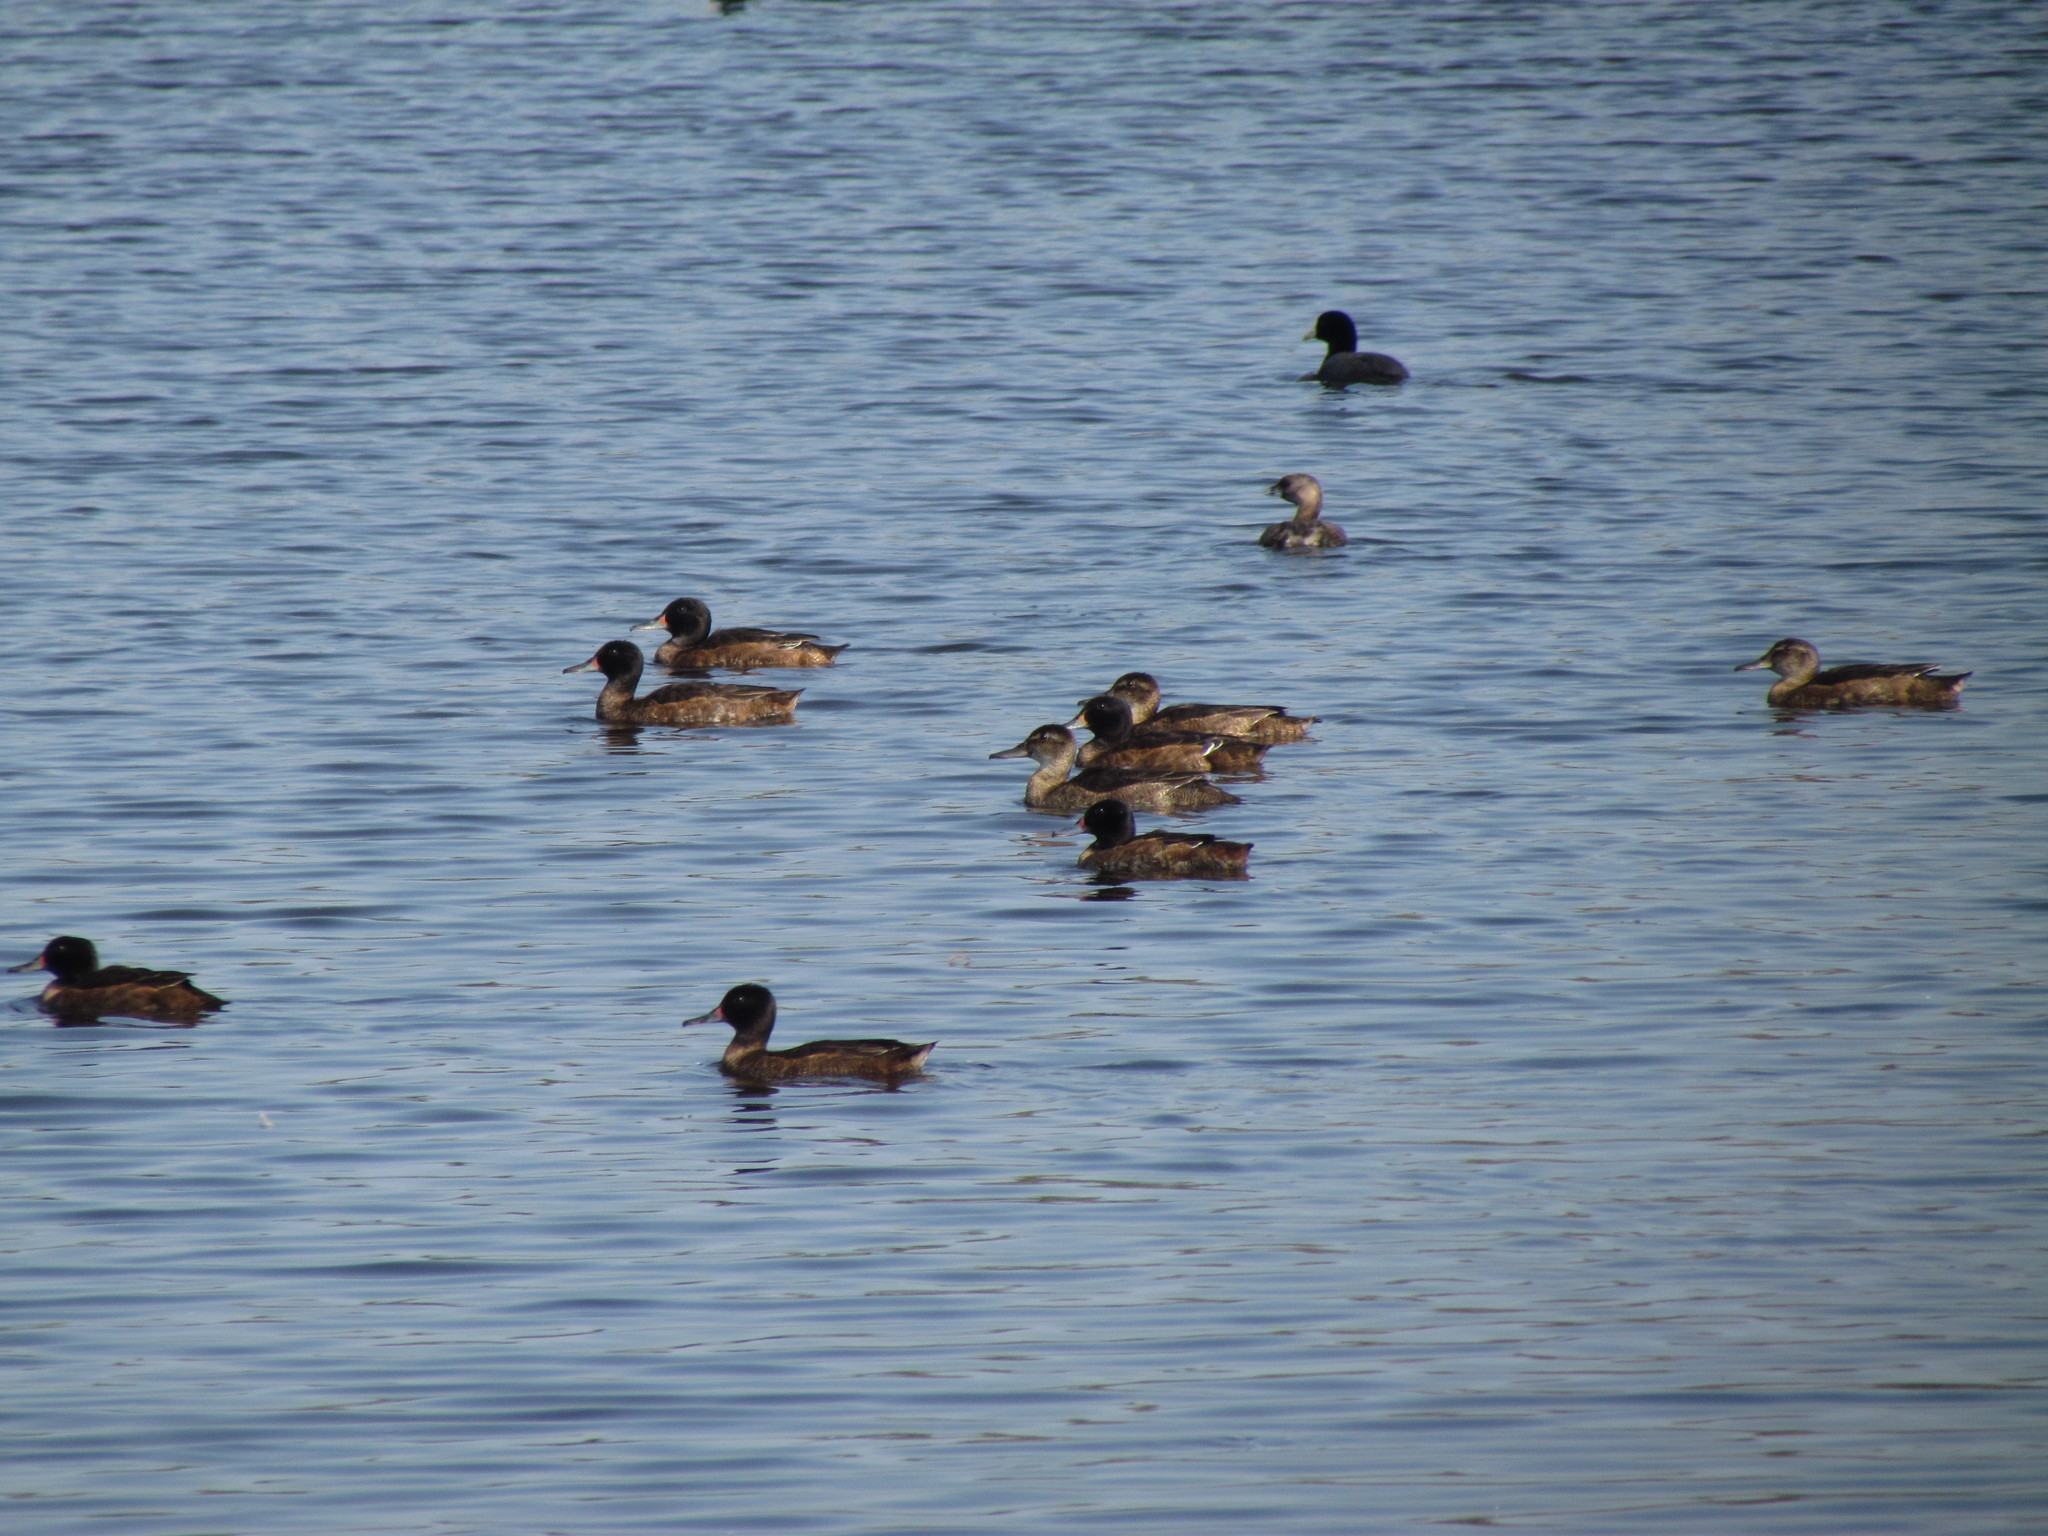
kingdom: Animalia
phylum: Chordata
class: Aves
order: Anseriformes
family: Anatidae
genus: Heteronetta
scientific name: Heteronetta atricapilla
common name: Black-headed duck
